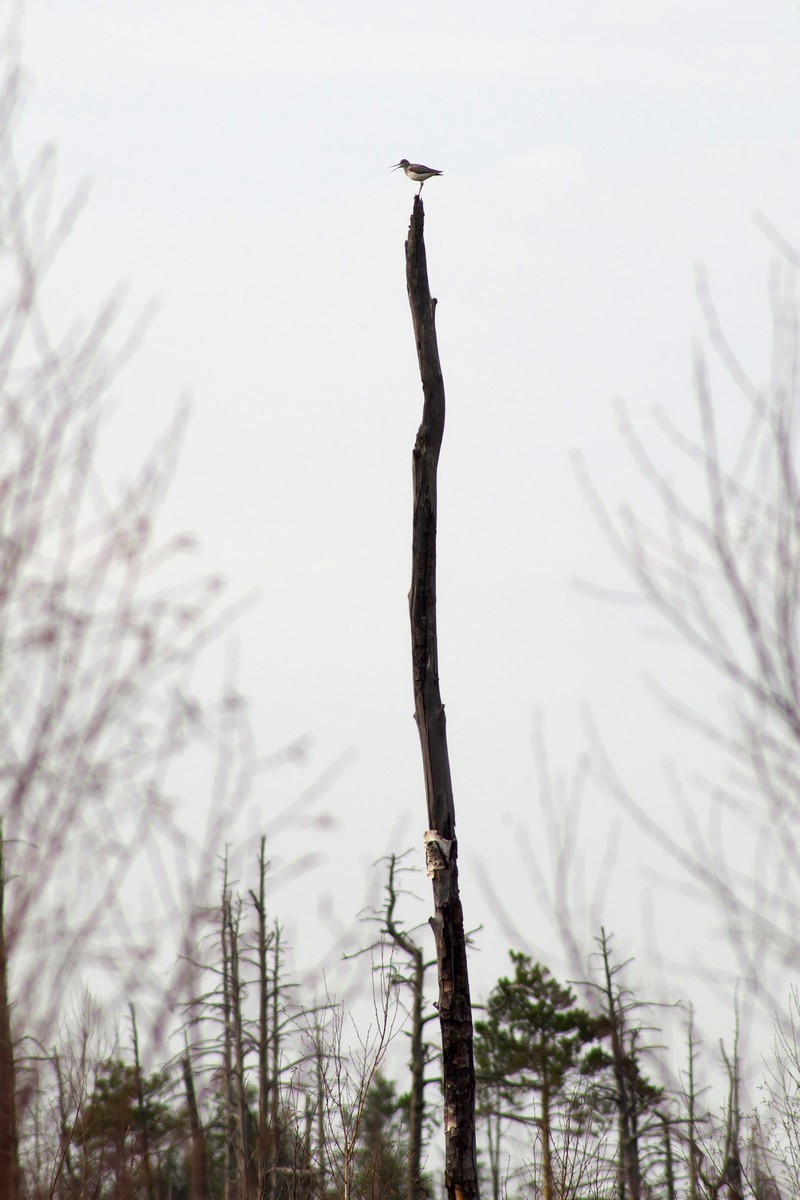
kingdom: Animalia
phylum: Chordata
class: Aves
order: Charadriiformes
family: Scolopacidae
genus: Tringa
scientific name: Tringa nebularia
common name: Common greenshank
